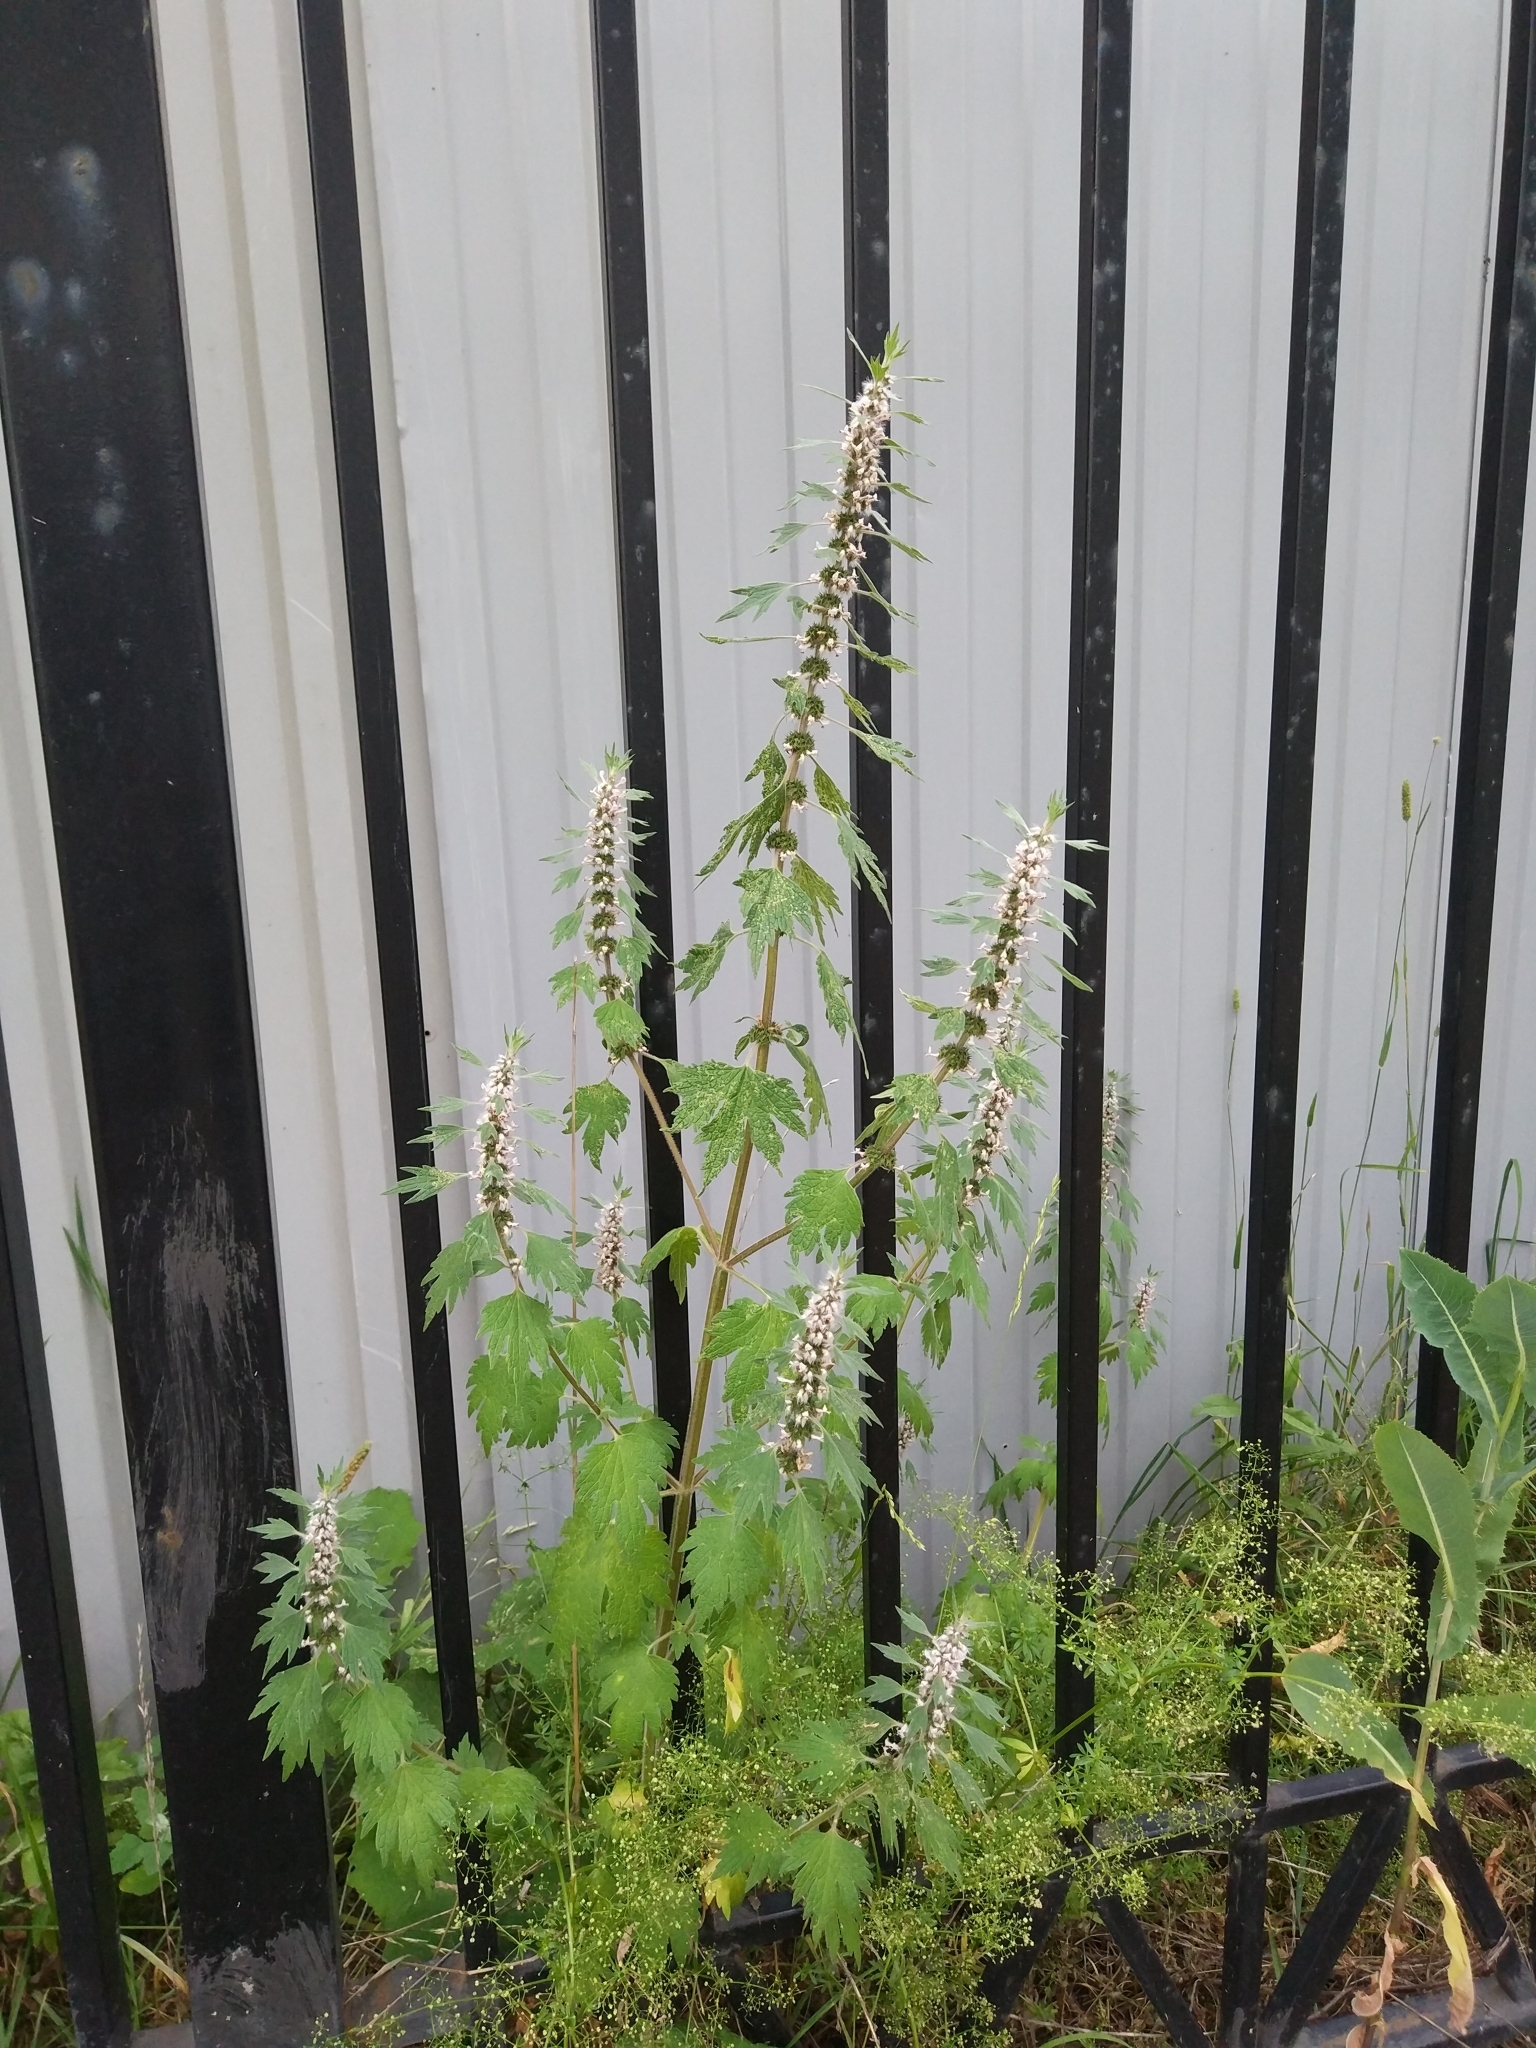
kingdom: Plantae
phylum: Tracheophyta
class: Magnoliopsida
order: Lamiales
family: Lamiaceae
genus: Leonurus
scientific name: Leonurus quinquelobatus
